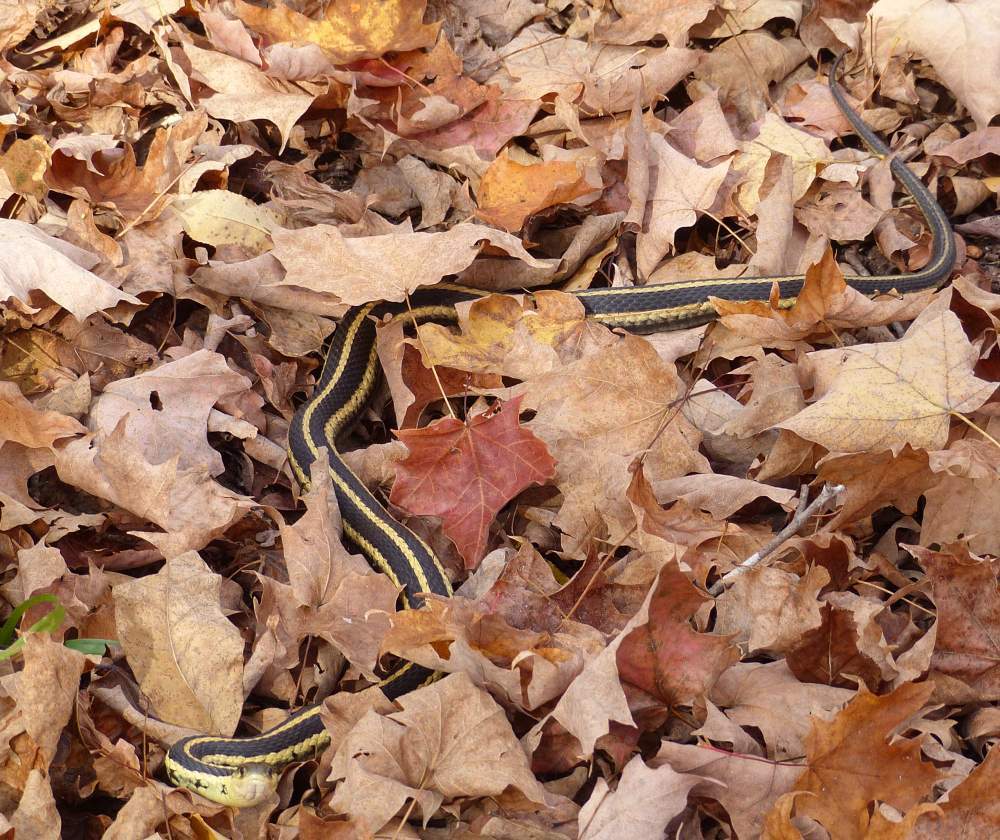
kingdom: Animalia
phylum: Chordata
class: Squamata
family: Colubridae
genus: Thamnophis
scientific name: Thamnophis sirtalis
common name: Common garter snake
